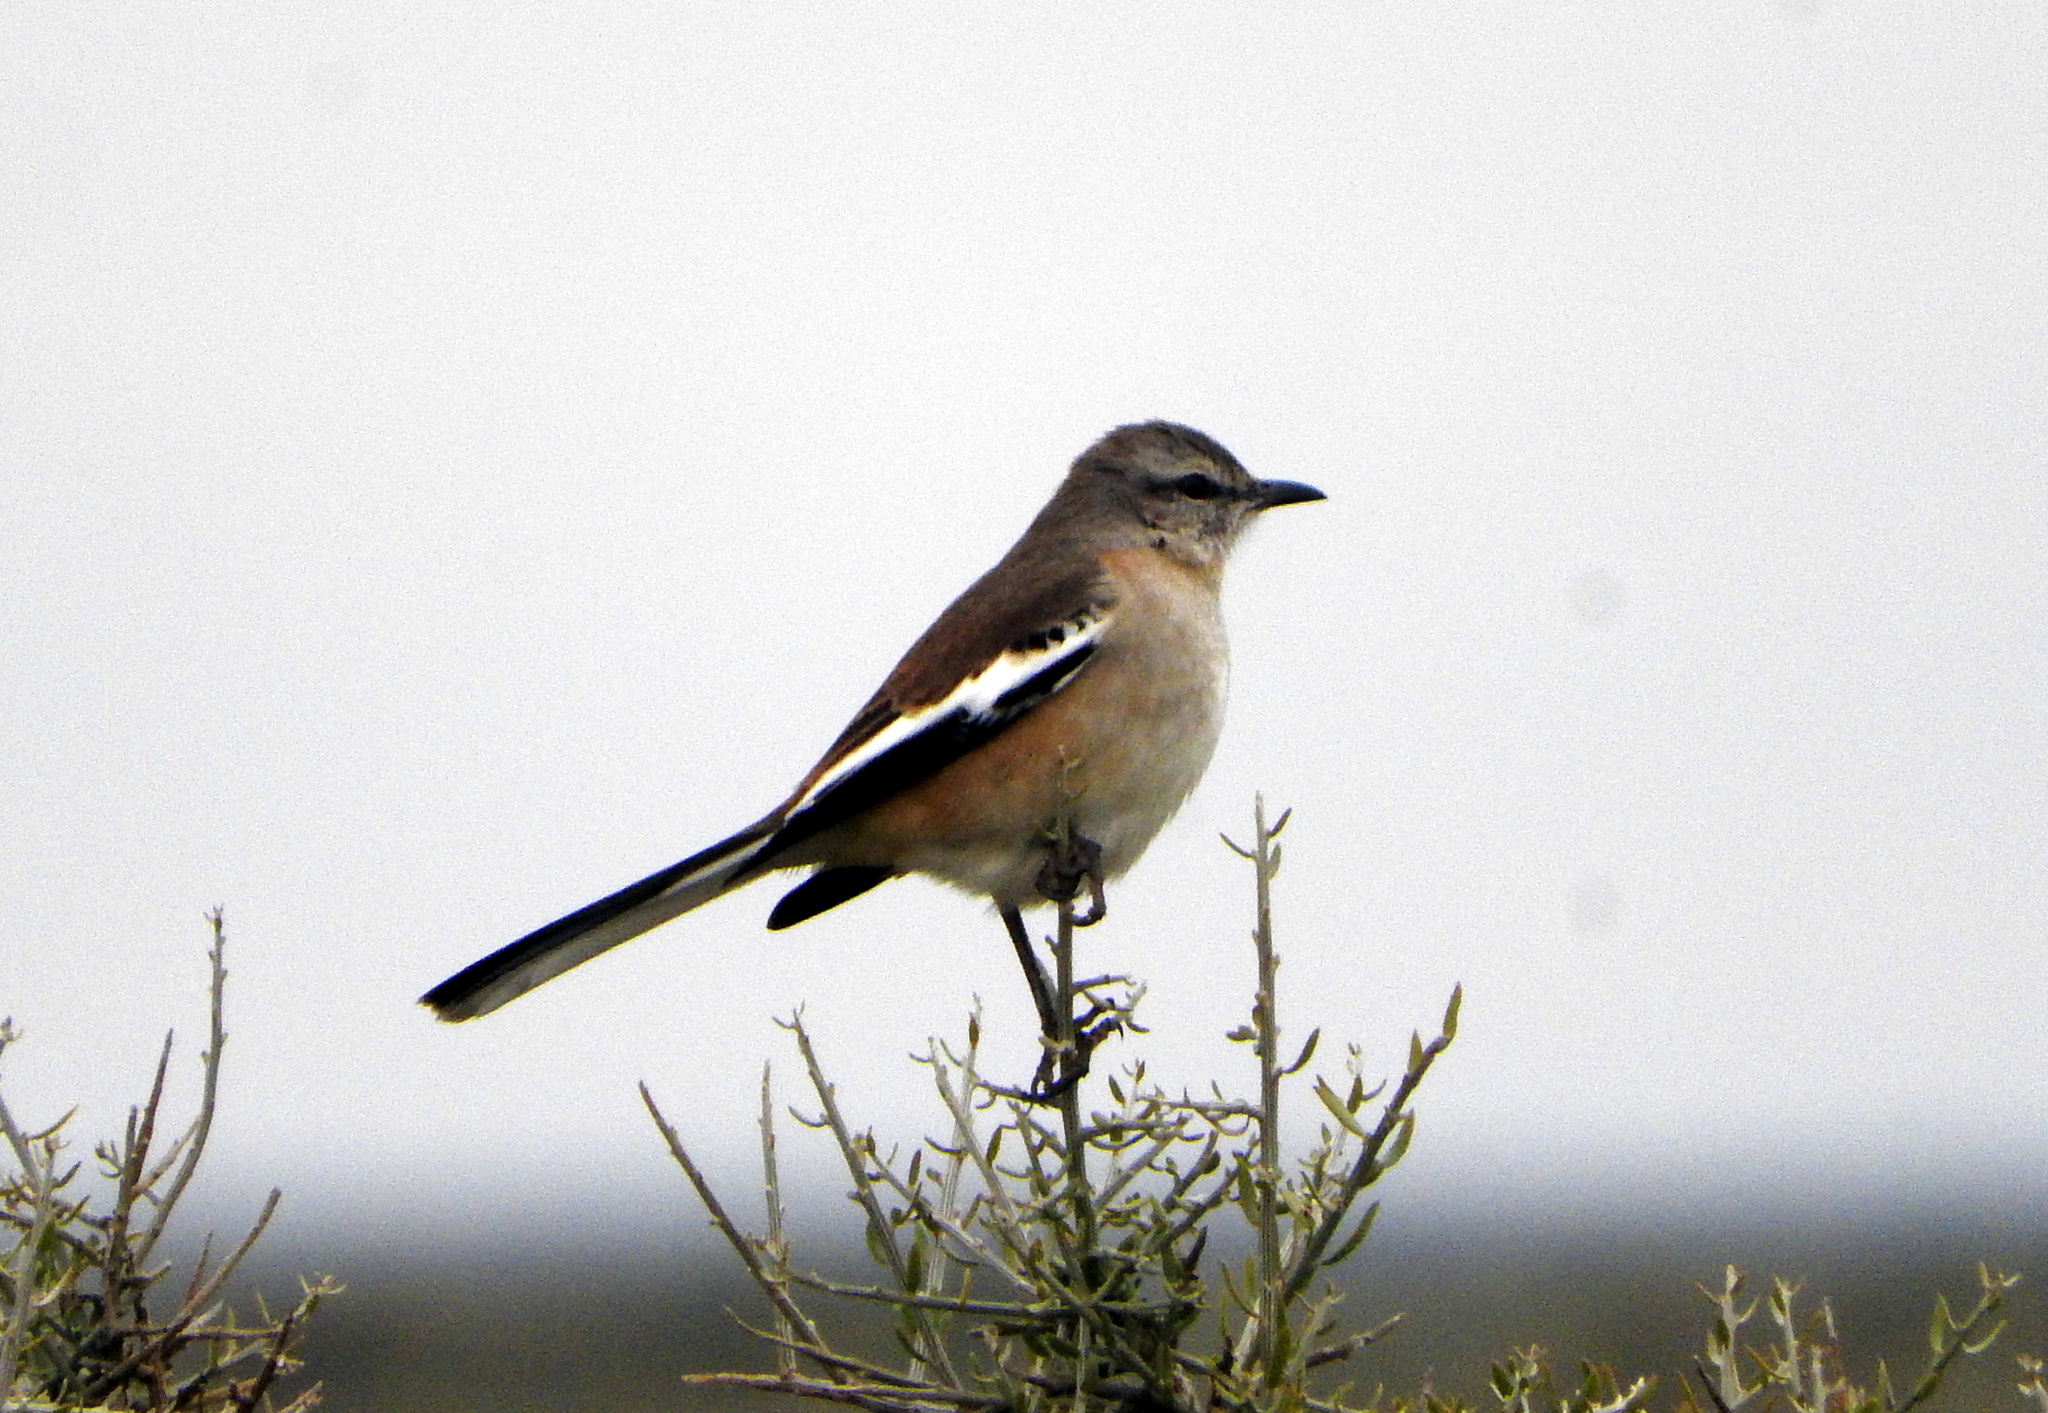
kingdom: Animalia
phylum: Chordata
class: Aves
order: Passeriformes
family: Mimidae
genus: Mimus
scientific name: Mimus triurus
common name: White-banded mockingbird
